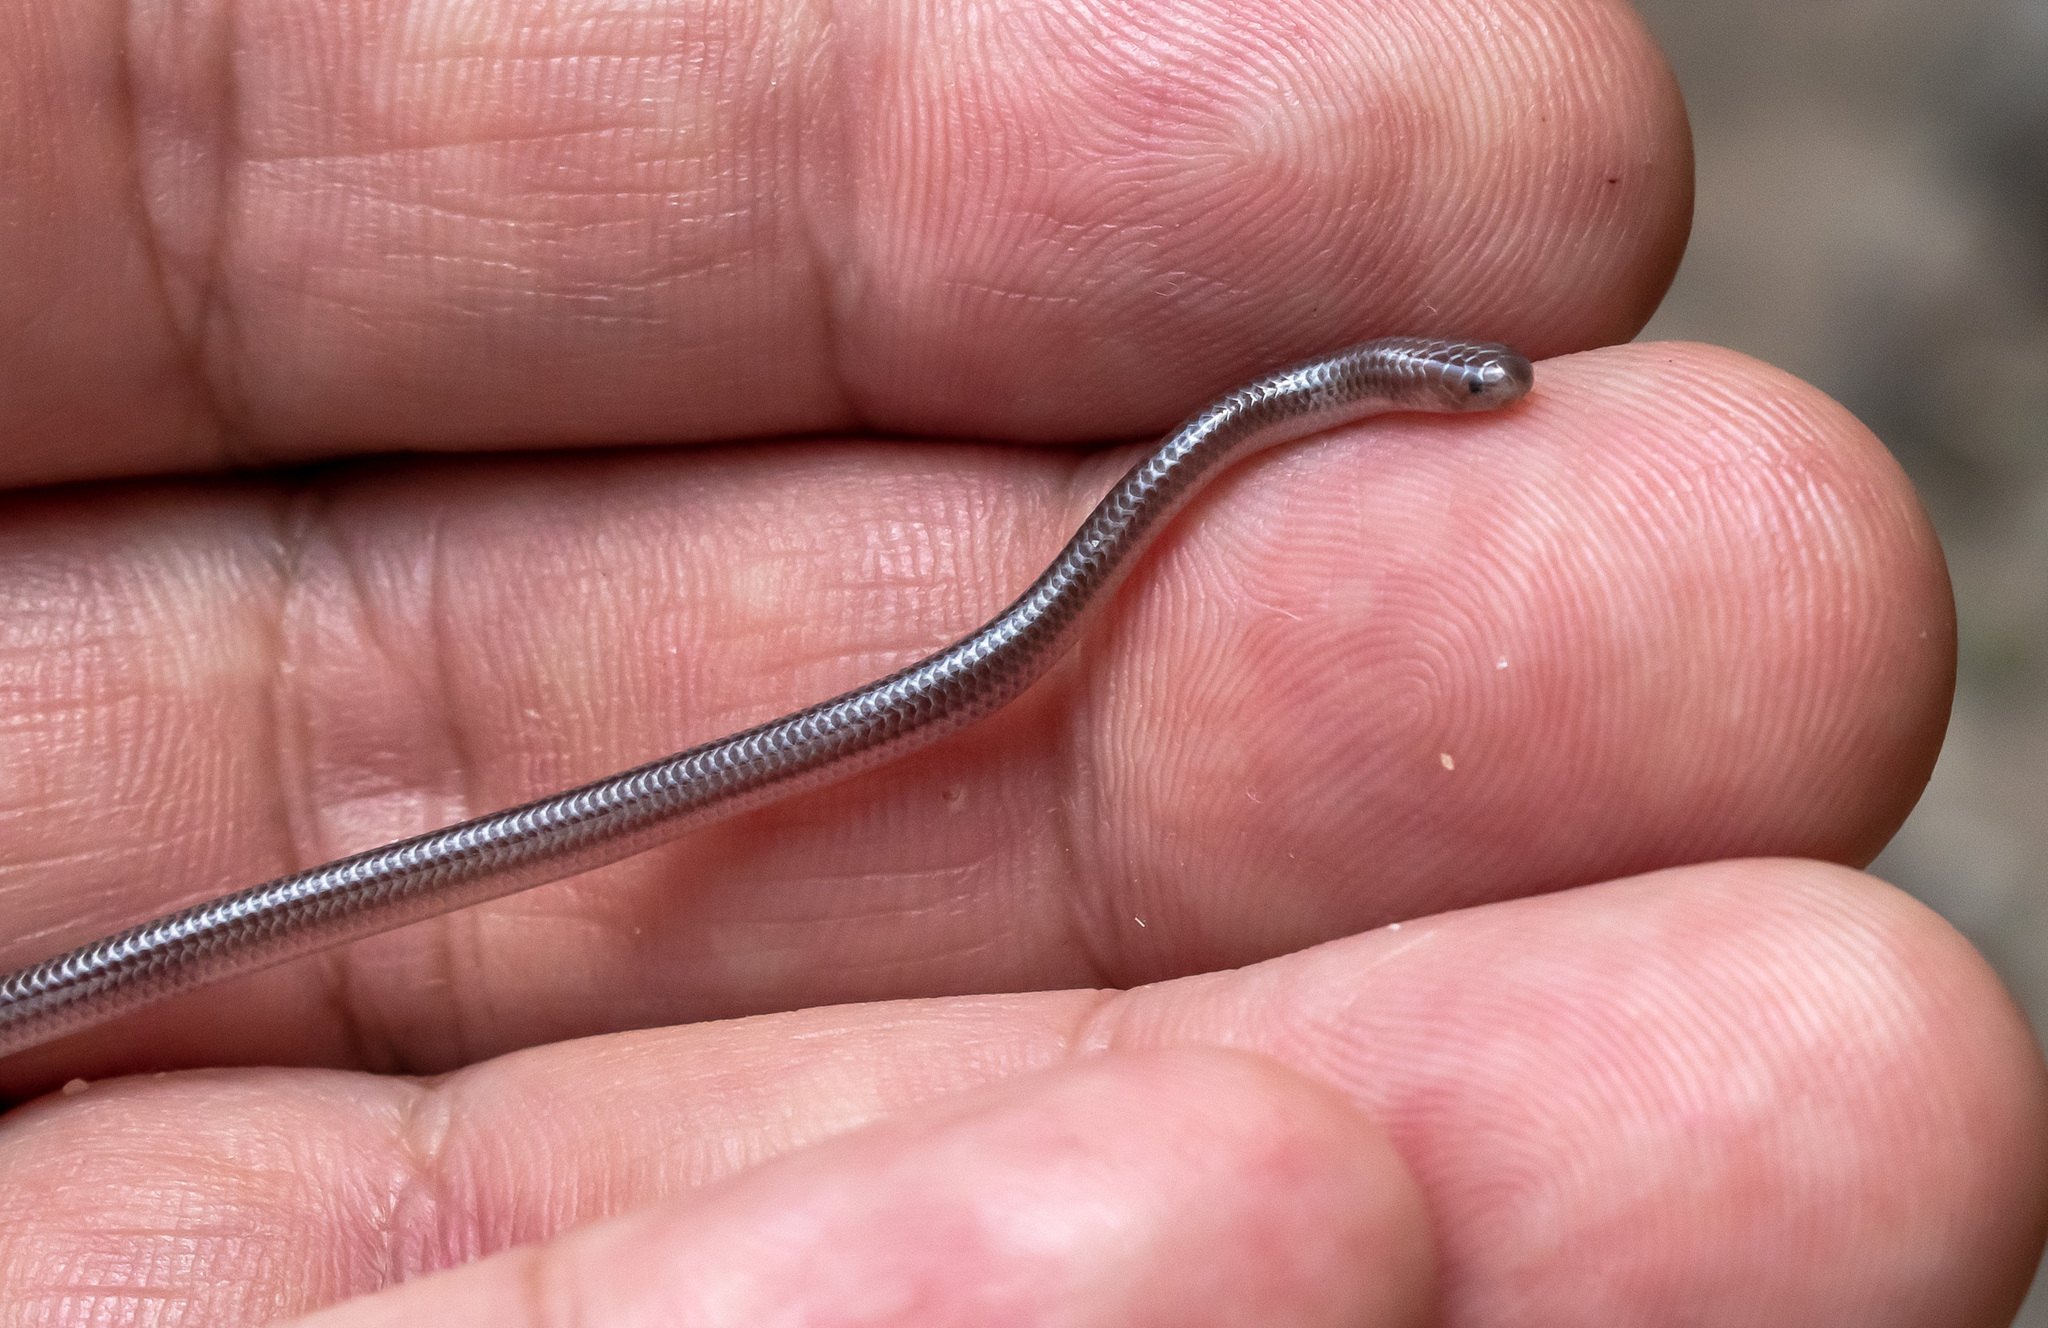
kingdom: Animalia
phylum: Chordata
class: Squamata
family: Leptotyphlopidae
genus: Trilepida
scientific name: Trilepida dimidiata
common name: Dainty blind snake
